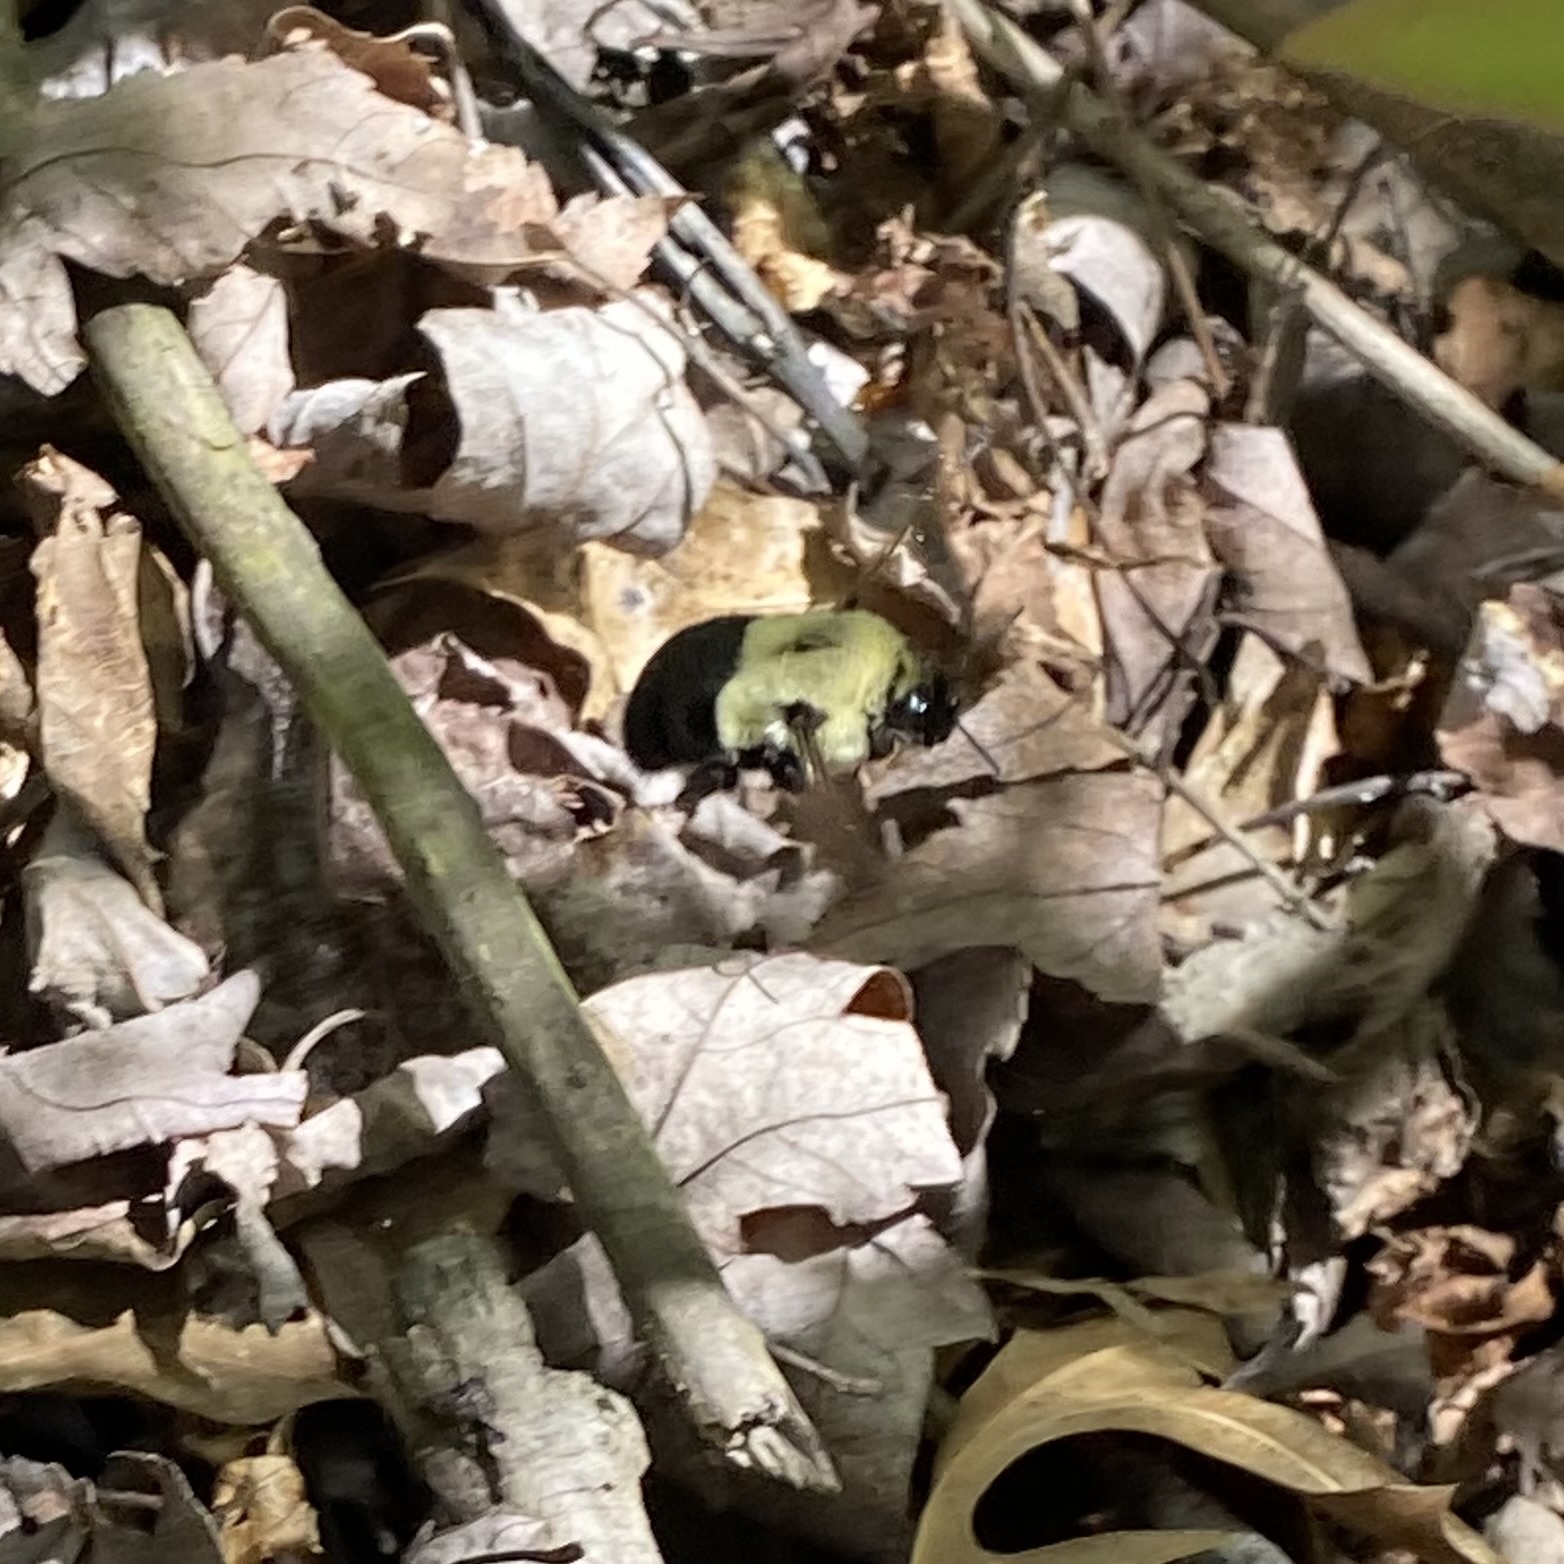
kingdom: Animalia
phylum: Arthropoda
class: Insecta
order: Hymenoptera
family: Apidae
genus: Bombus
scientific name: Bombus impatiens
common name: Common eastern bumble bee
